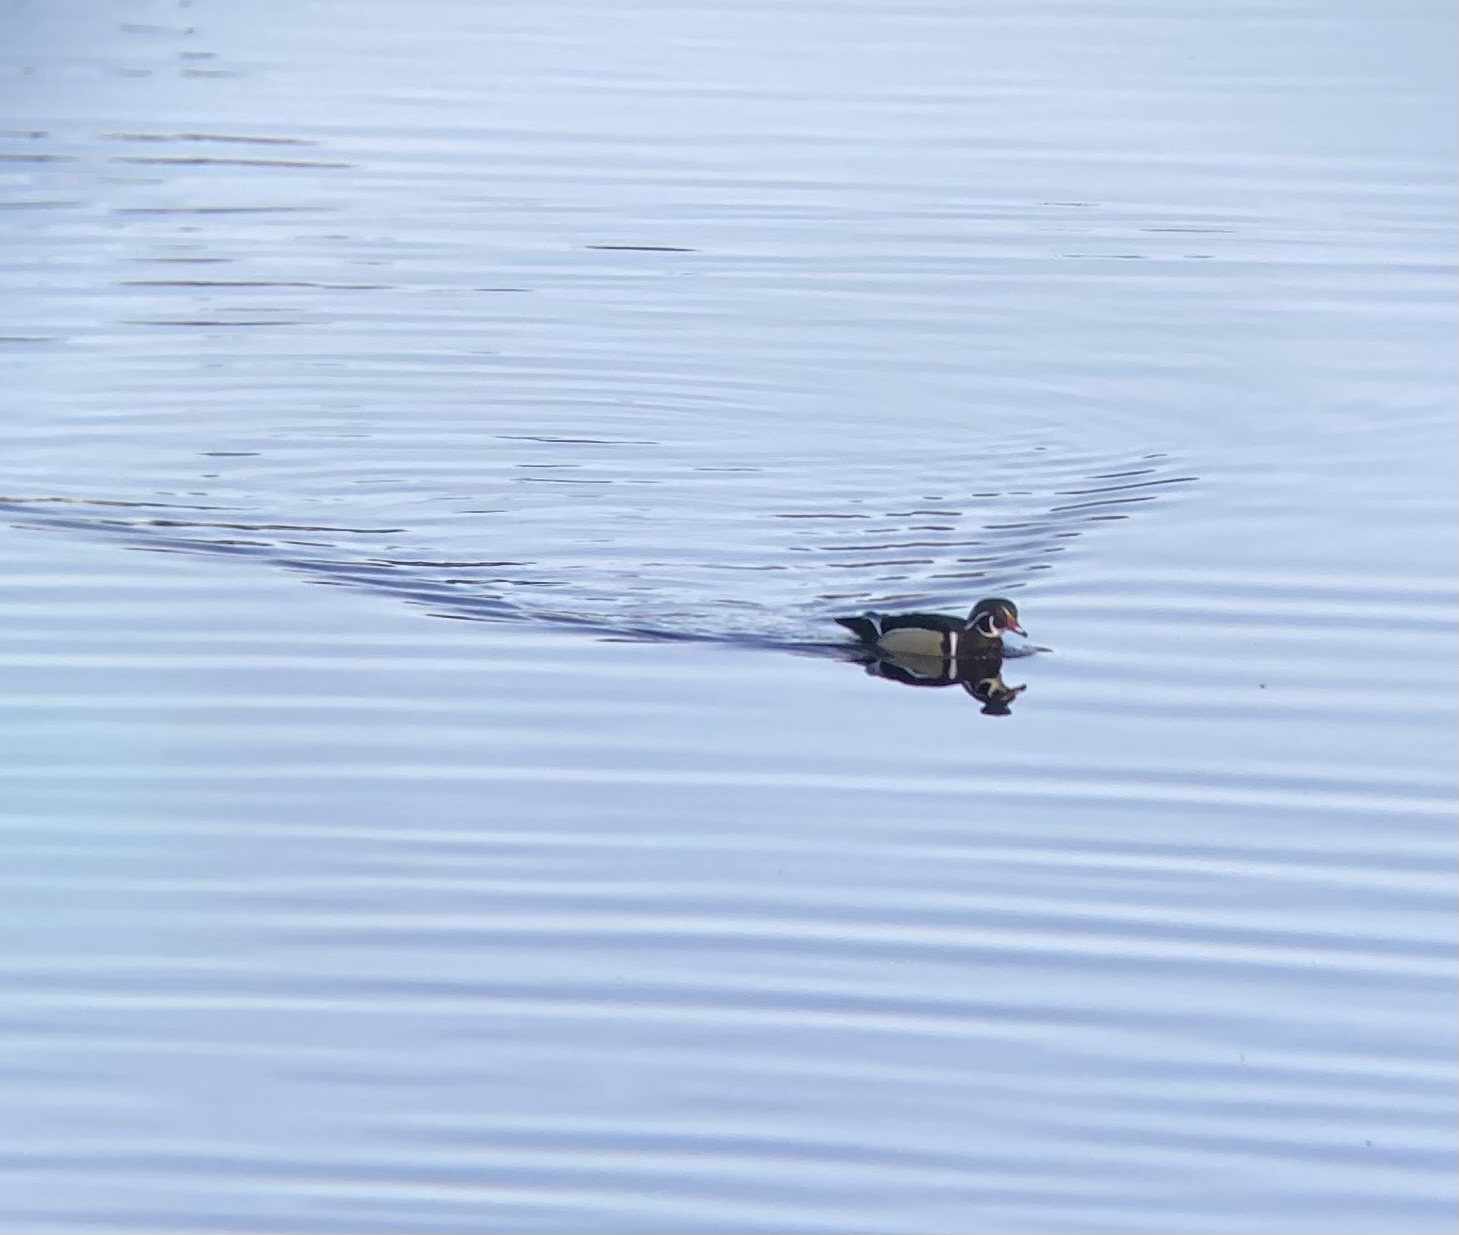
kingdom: Animalia
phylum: Chordata
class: Aves
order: Anseriformes
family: Anatidae
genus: Aix
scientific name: Aix sponsa
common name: Wood duck
